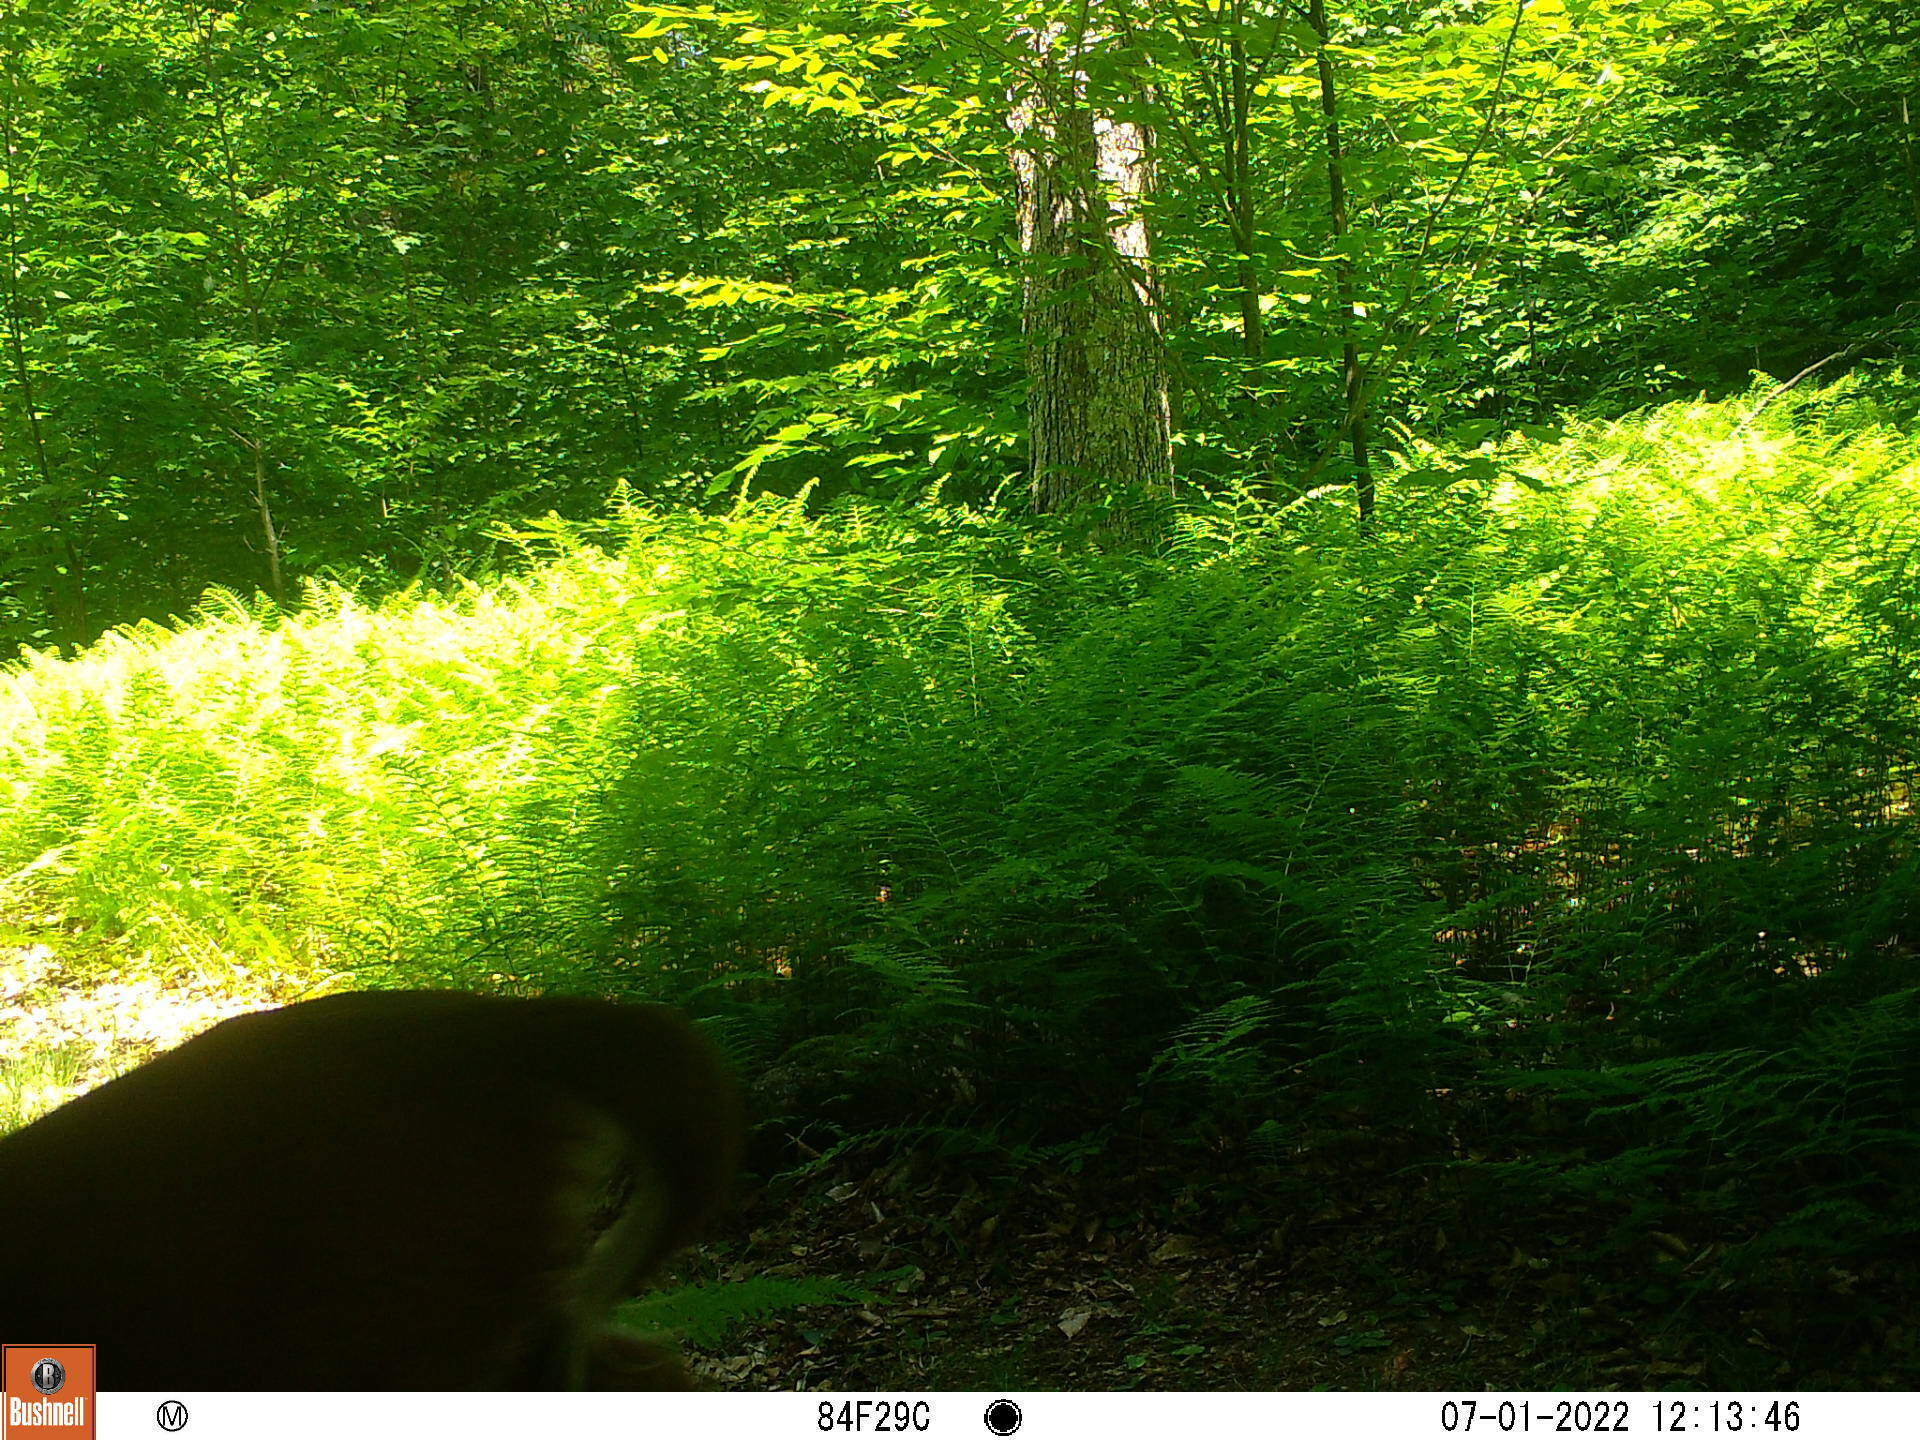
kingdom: Animalia
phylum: Chordata
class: Mammalia
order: Artiodactyla
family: Cervidae
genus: Odocoileus
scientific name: Odocoileus virginianus
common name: White-tailed deer
